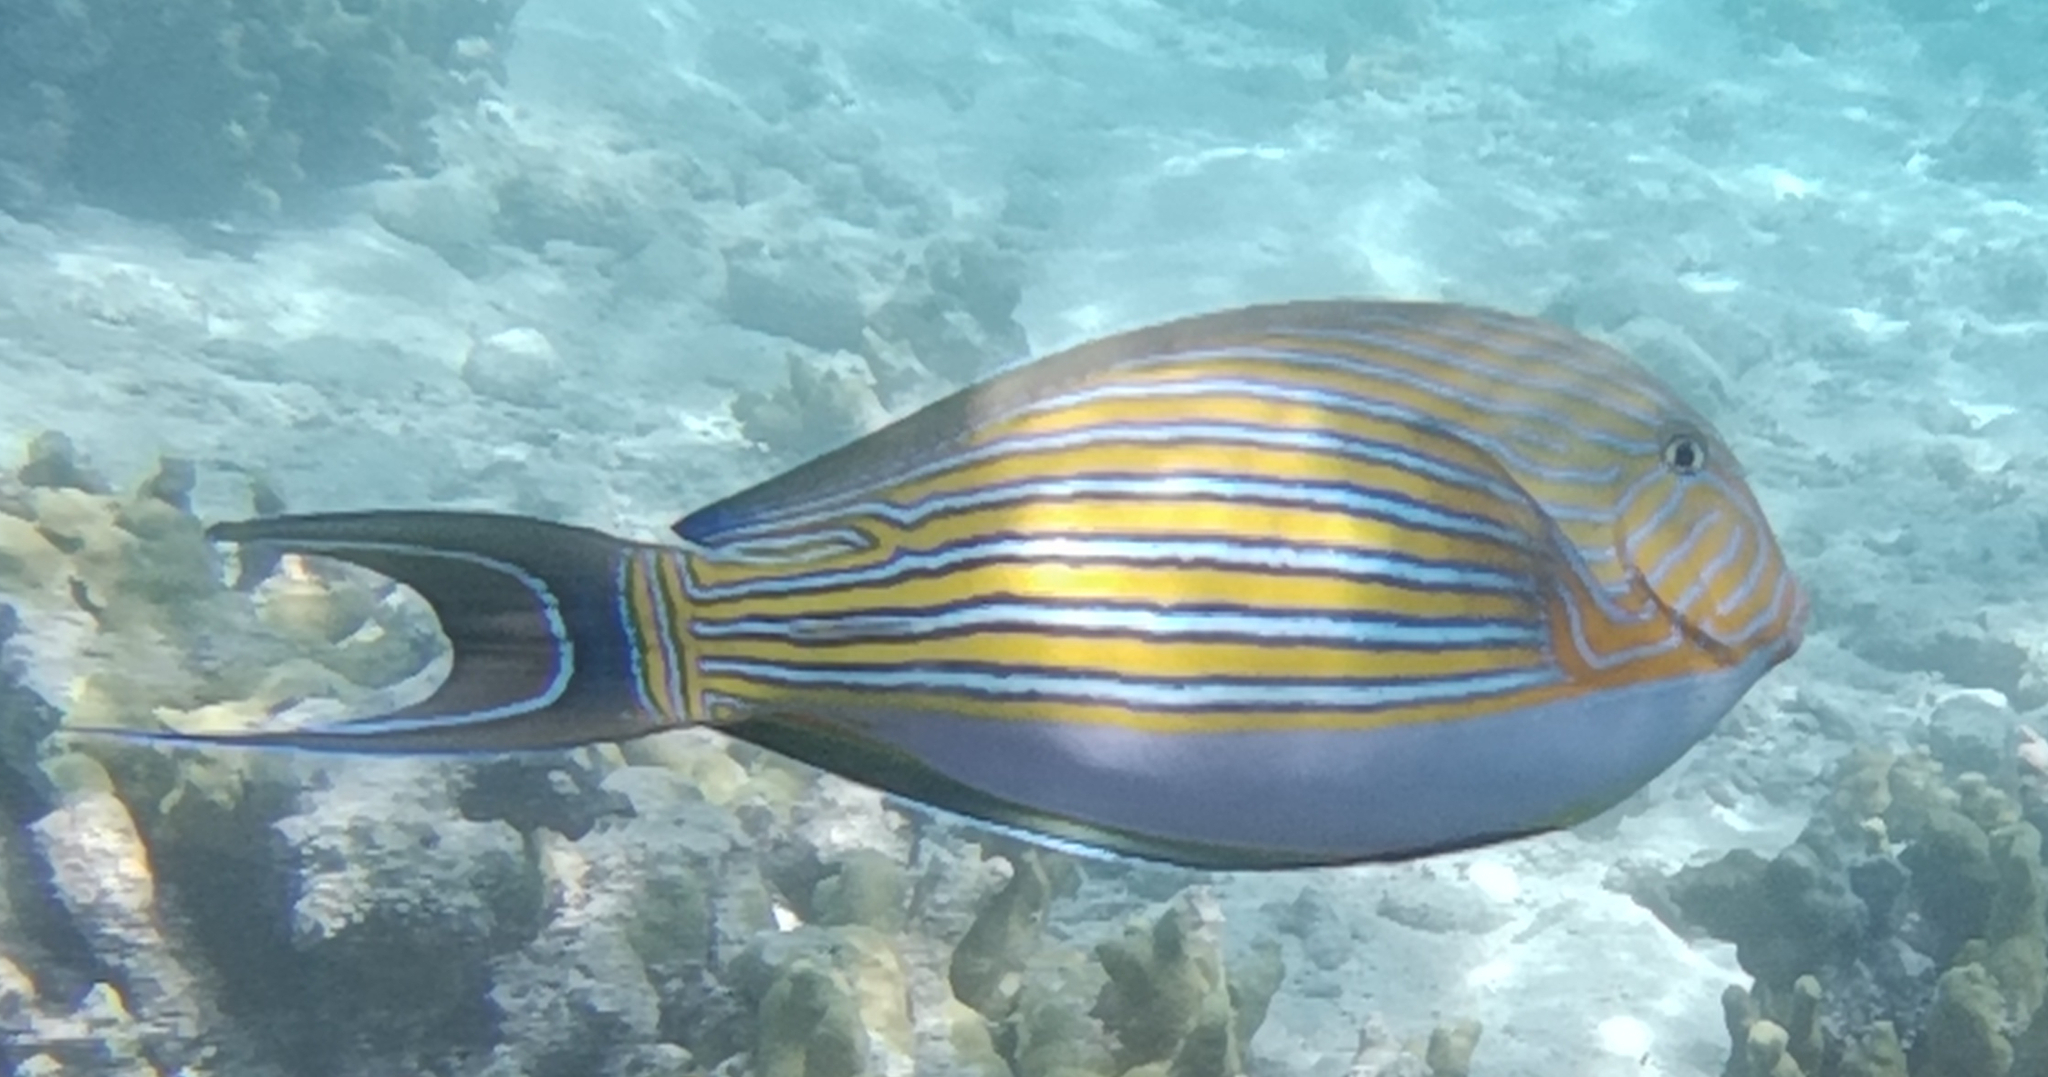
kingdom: Animalia
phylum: Chordata
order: Perciformes
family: Acanthuridae
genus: Acanthurus
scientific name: Acanthurus lineatus
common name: Striped surgeonfish
